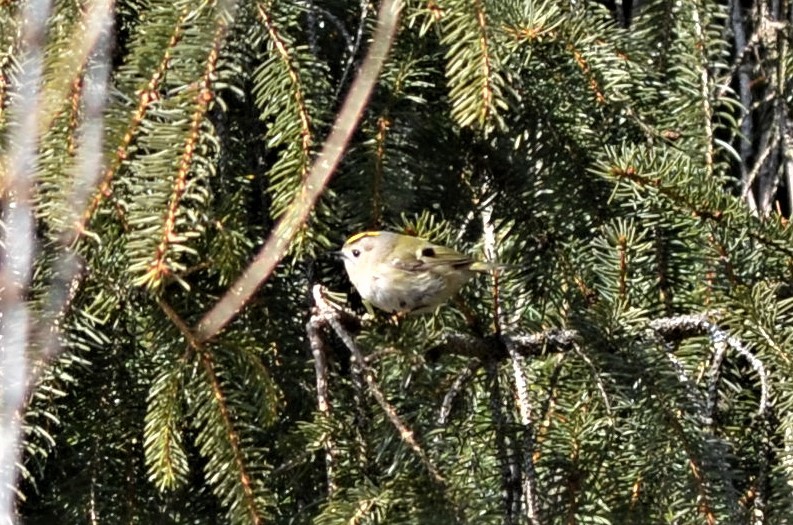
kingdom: Animalia
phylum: Chordata
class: Aves
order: Passeriformes
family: Regulidae
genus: Regulus
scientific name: Regulus regulus
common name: Goldcrest
